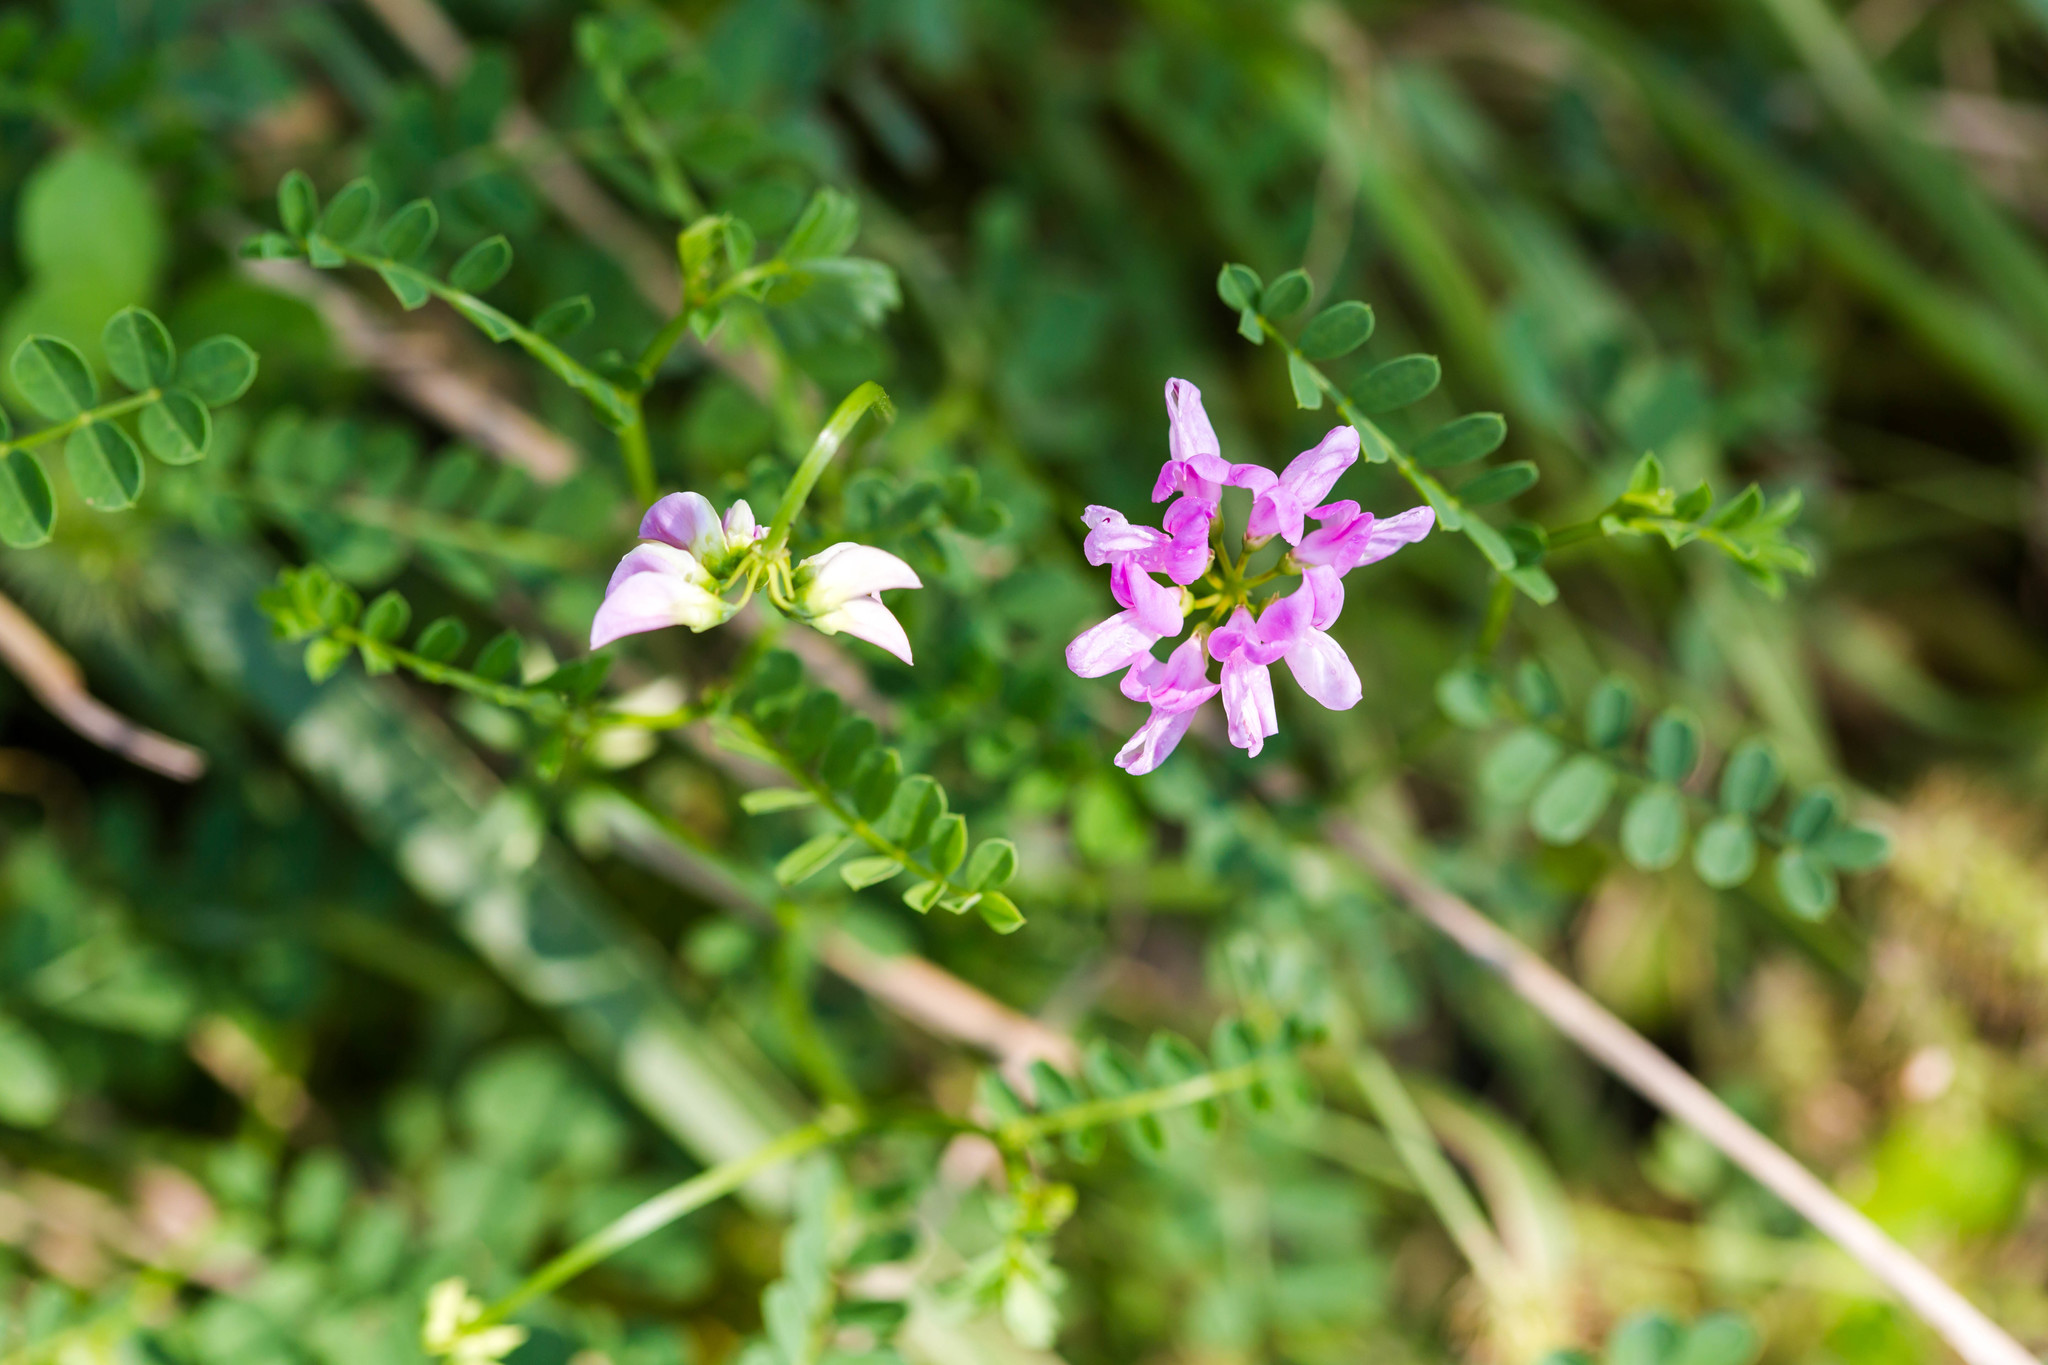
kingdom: Plantae
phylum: Tracheophyta
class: Magnoliopsida
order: Fabales
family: Fabaceae
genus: Coronilla
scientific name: Coronilla varia
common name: Crownvetch
